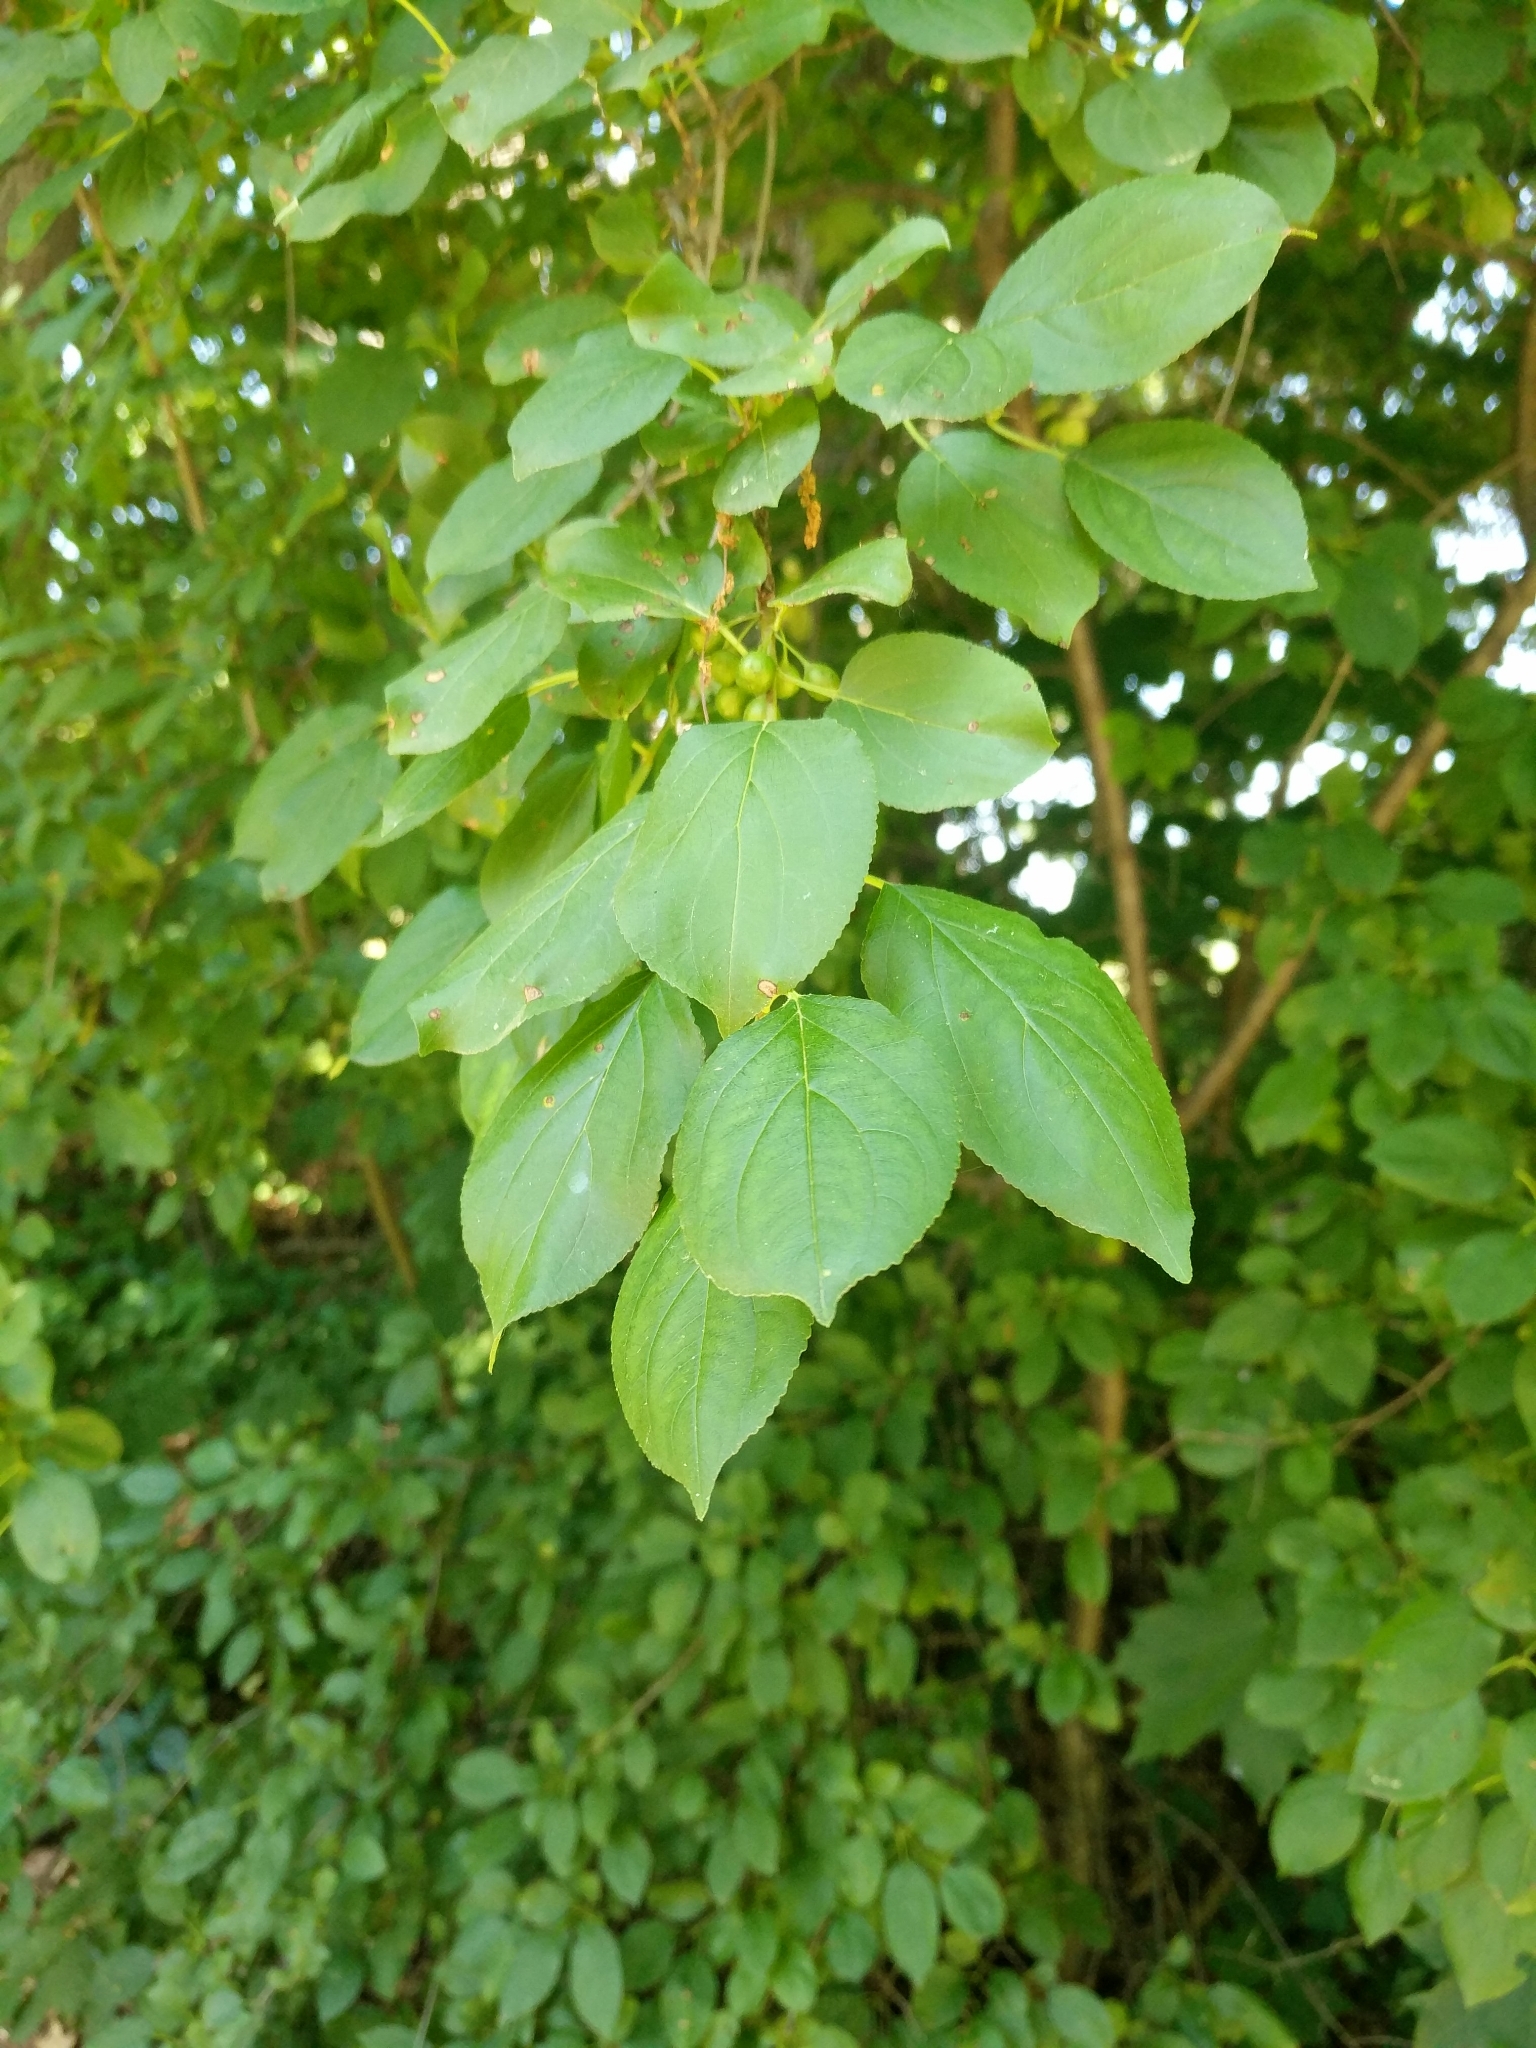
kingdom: Plantae
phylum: Tracheophyta
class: Magnoliopsida
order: Rosales
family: Rhamnaceae
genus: Rhamnus
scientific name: Rhamnus cathartica
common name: Common buckthorn
